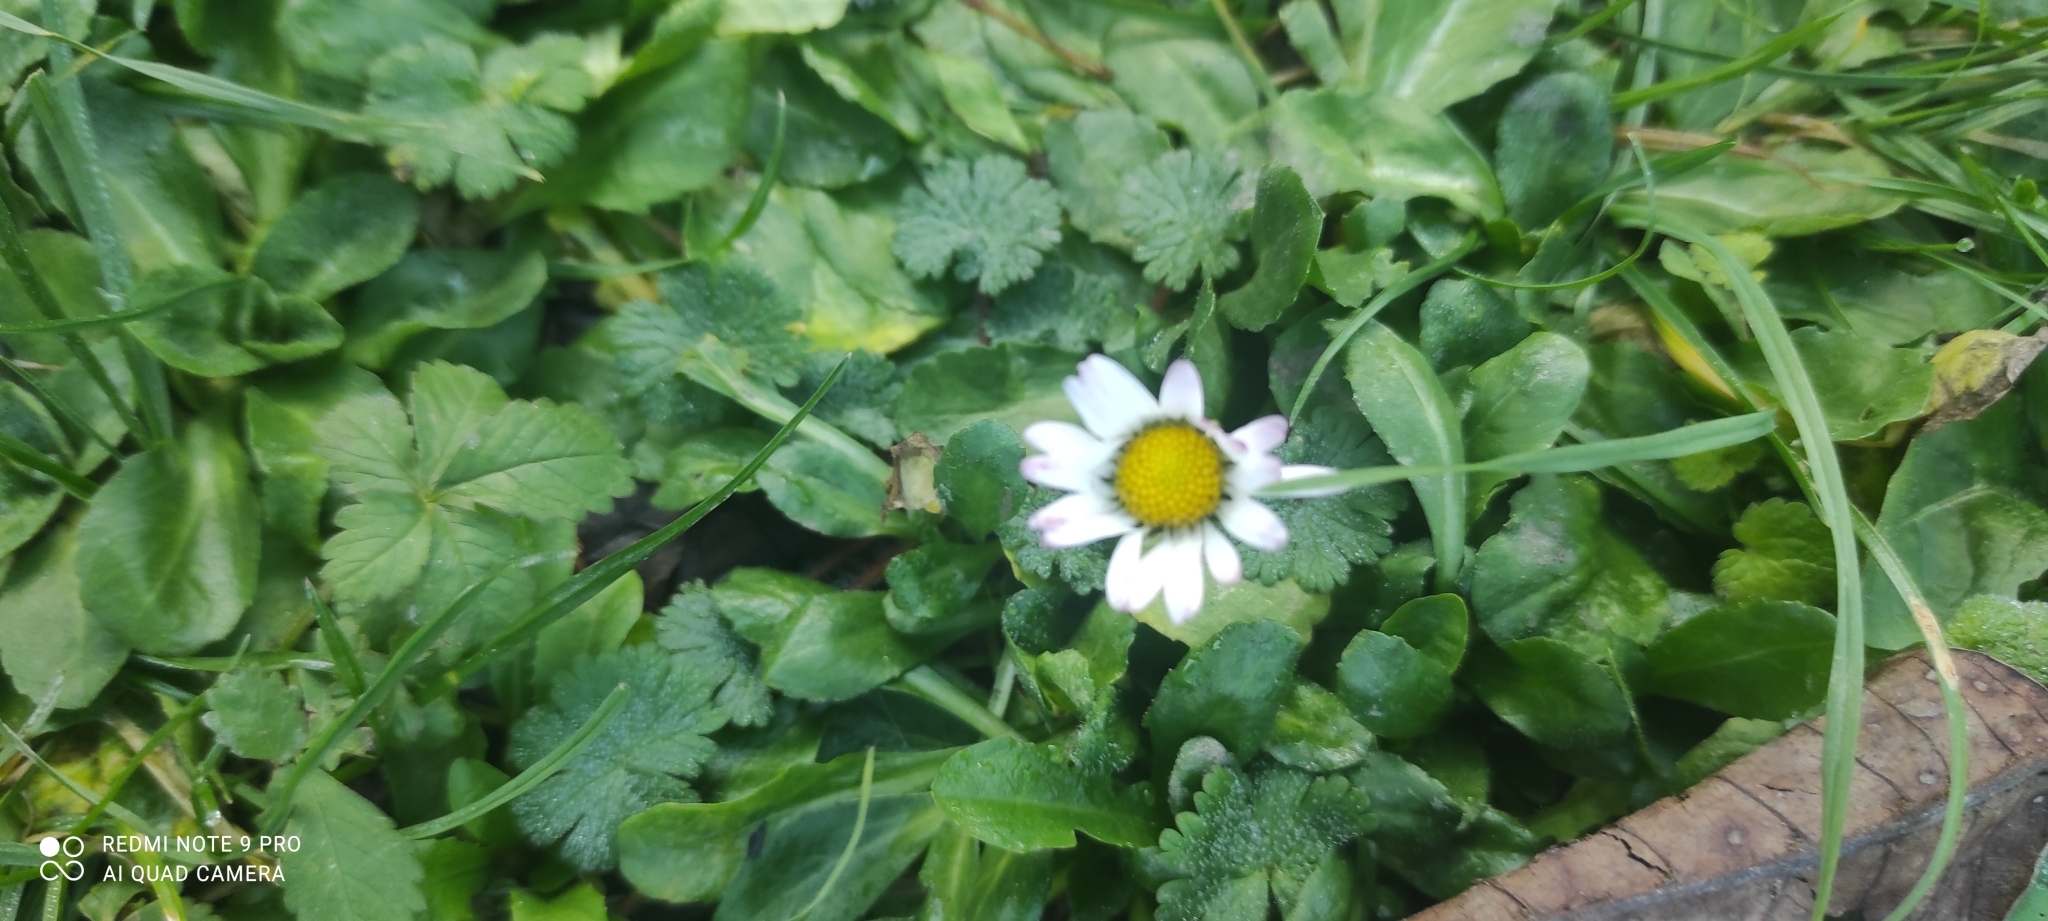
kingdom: Plantae
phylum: Tracheophyta
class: Magnoliopsida
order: Asterales
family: Asteraceae
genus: Bellis
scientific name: Bellis perennis
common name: Lawndaisy
